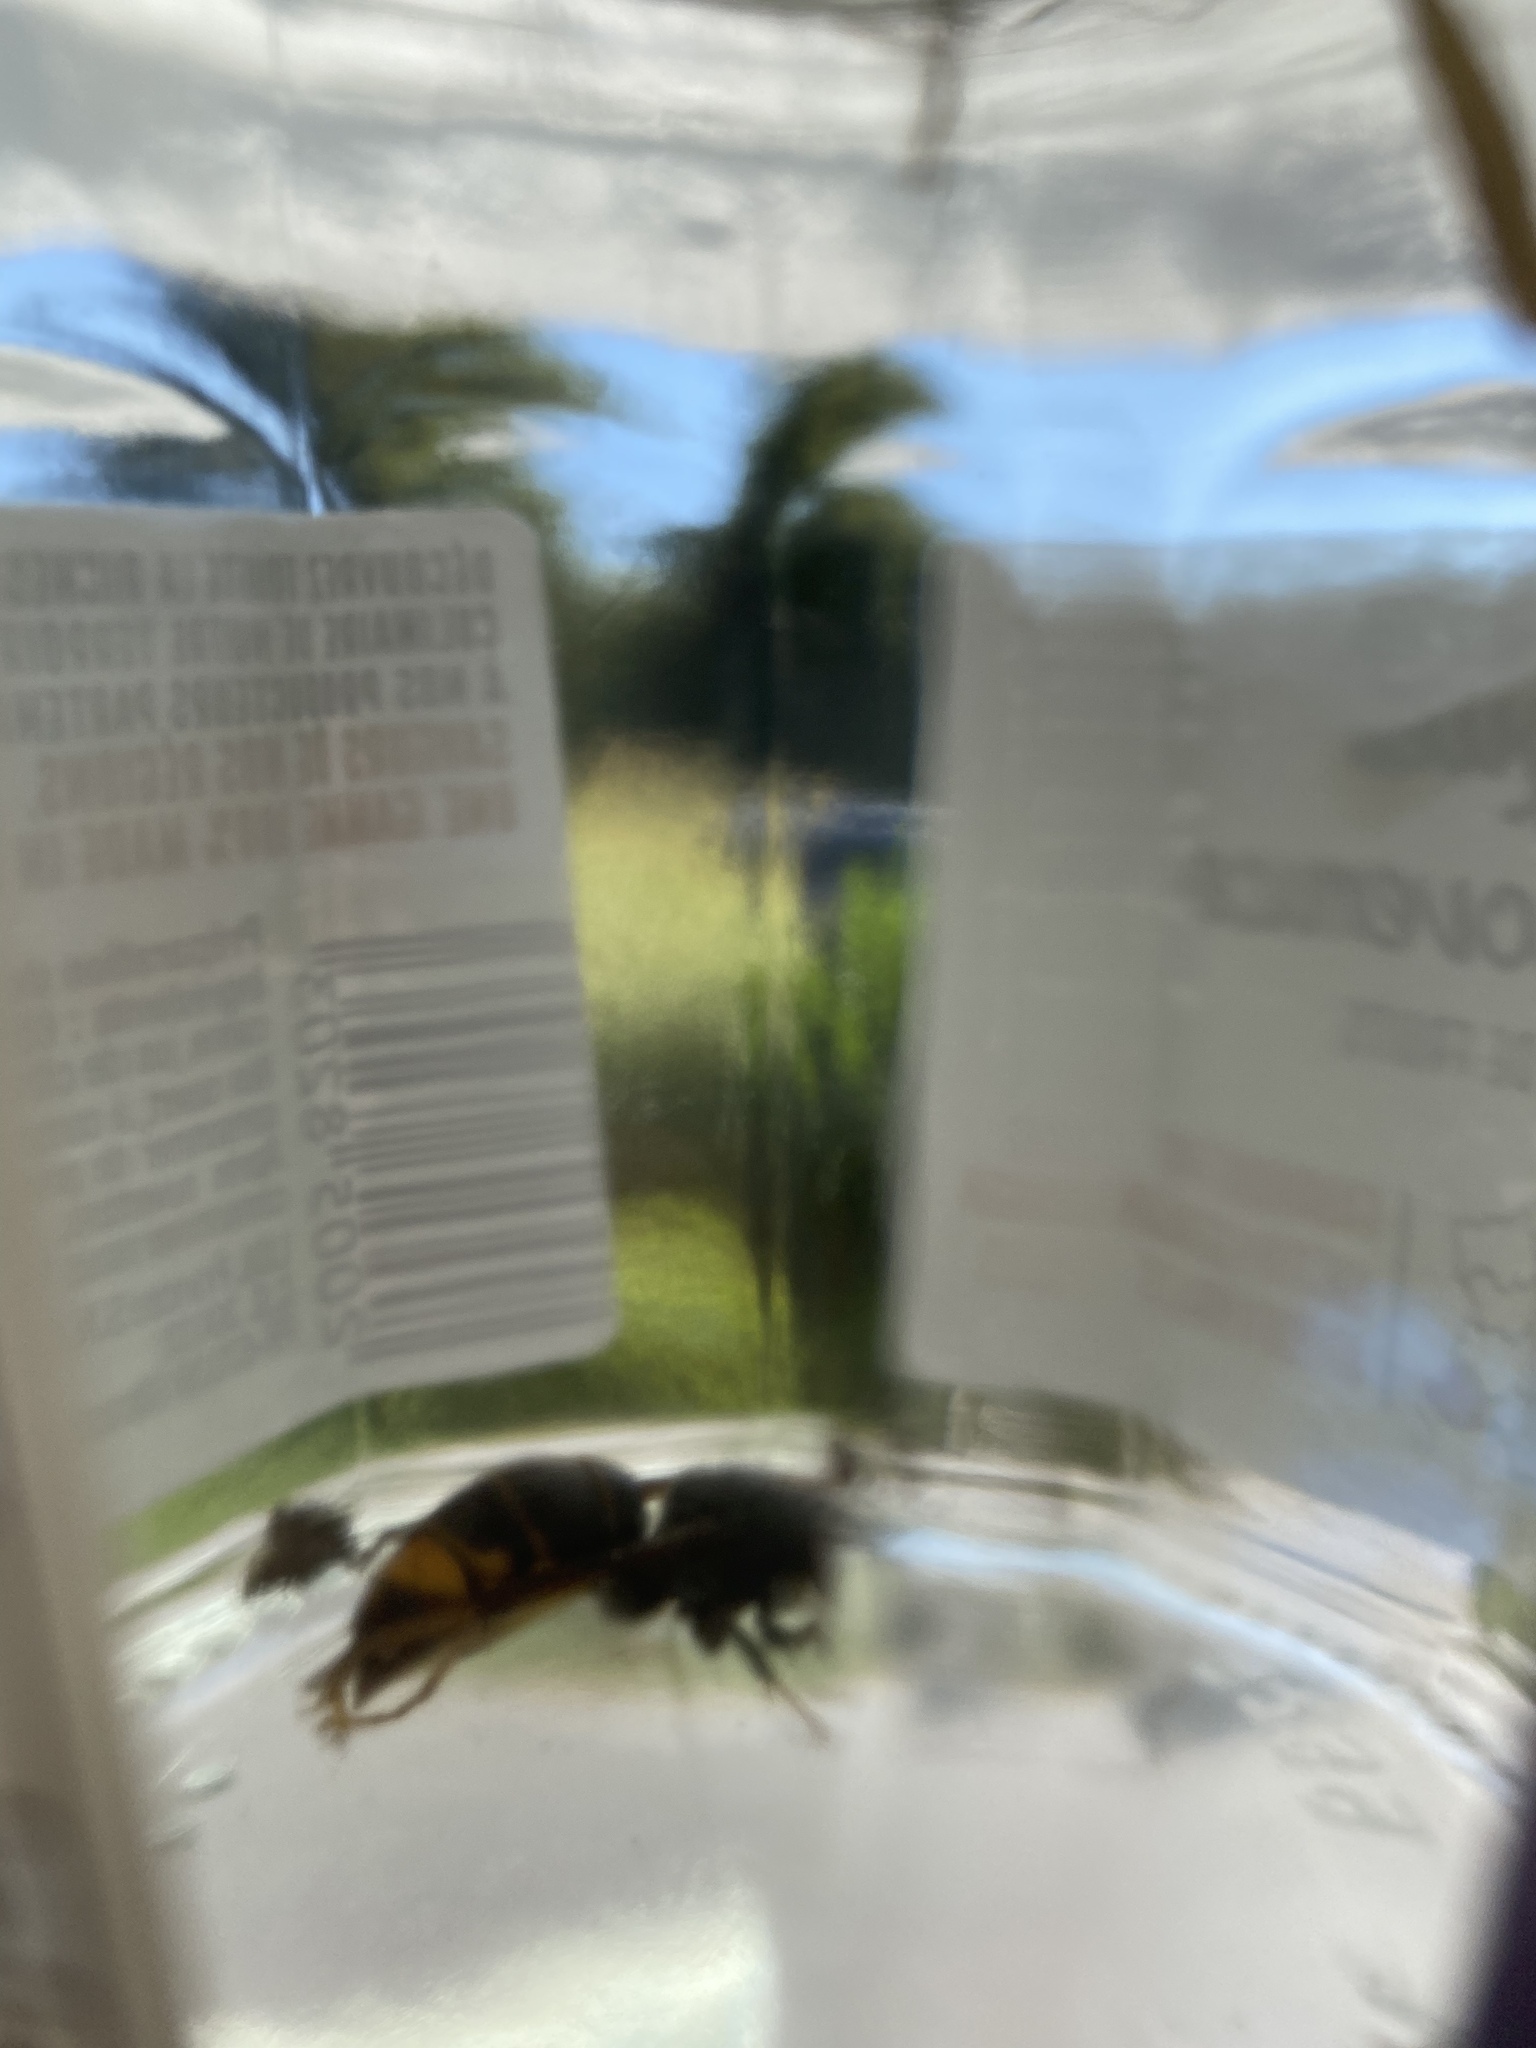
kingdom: Animalia
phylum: Arthropoda
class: Insecta
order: Hymenoptera
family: Vespidae
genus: Vespa
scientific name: Vespa velutina
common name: Asian hornet
